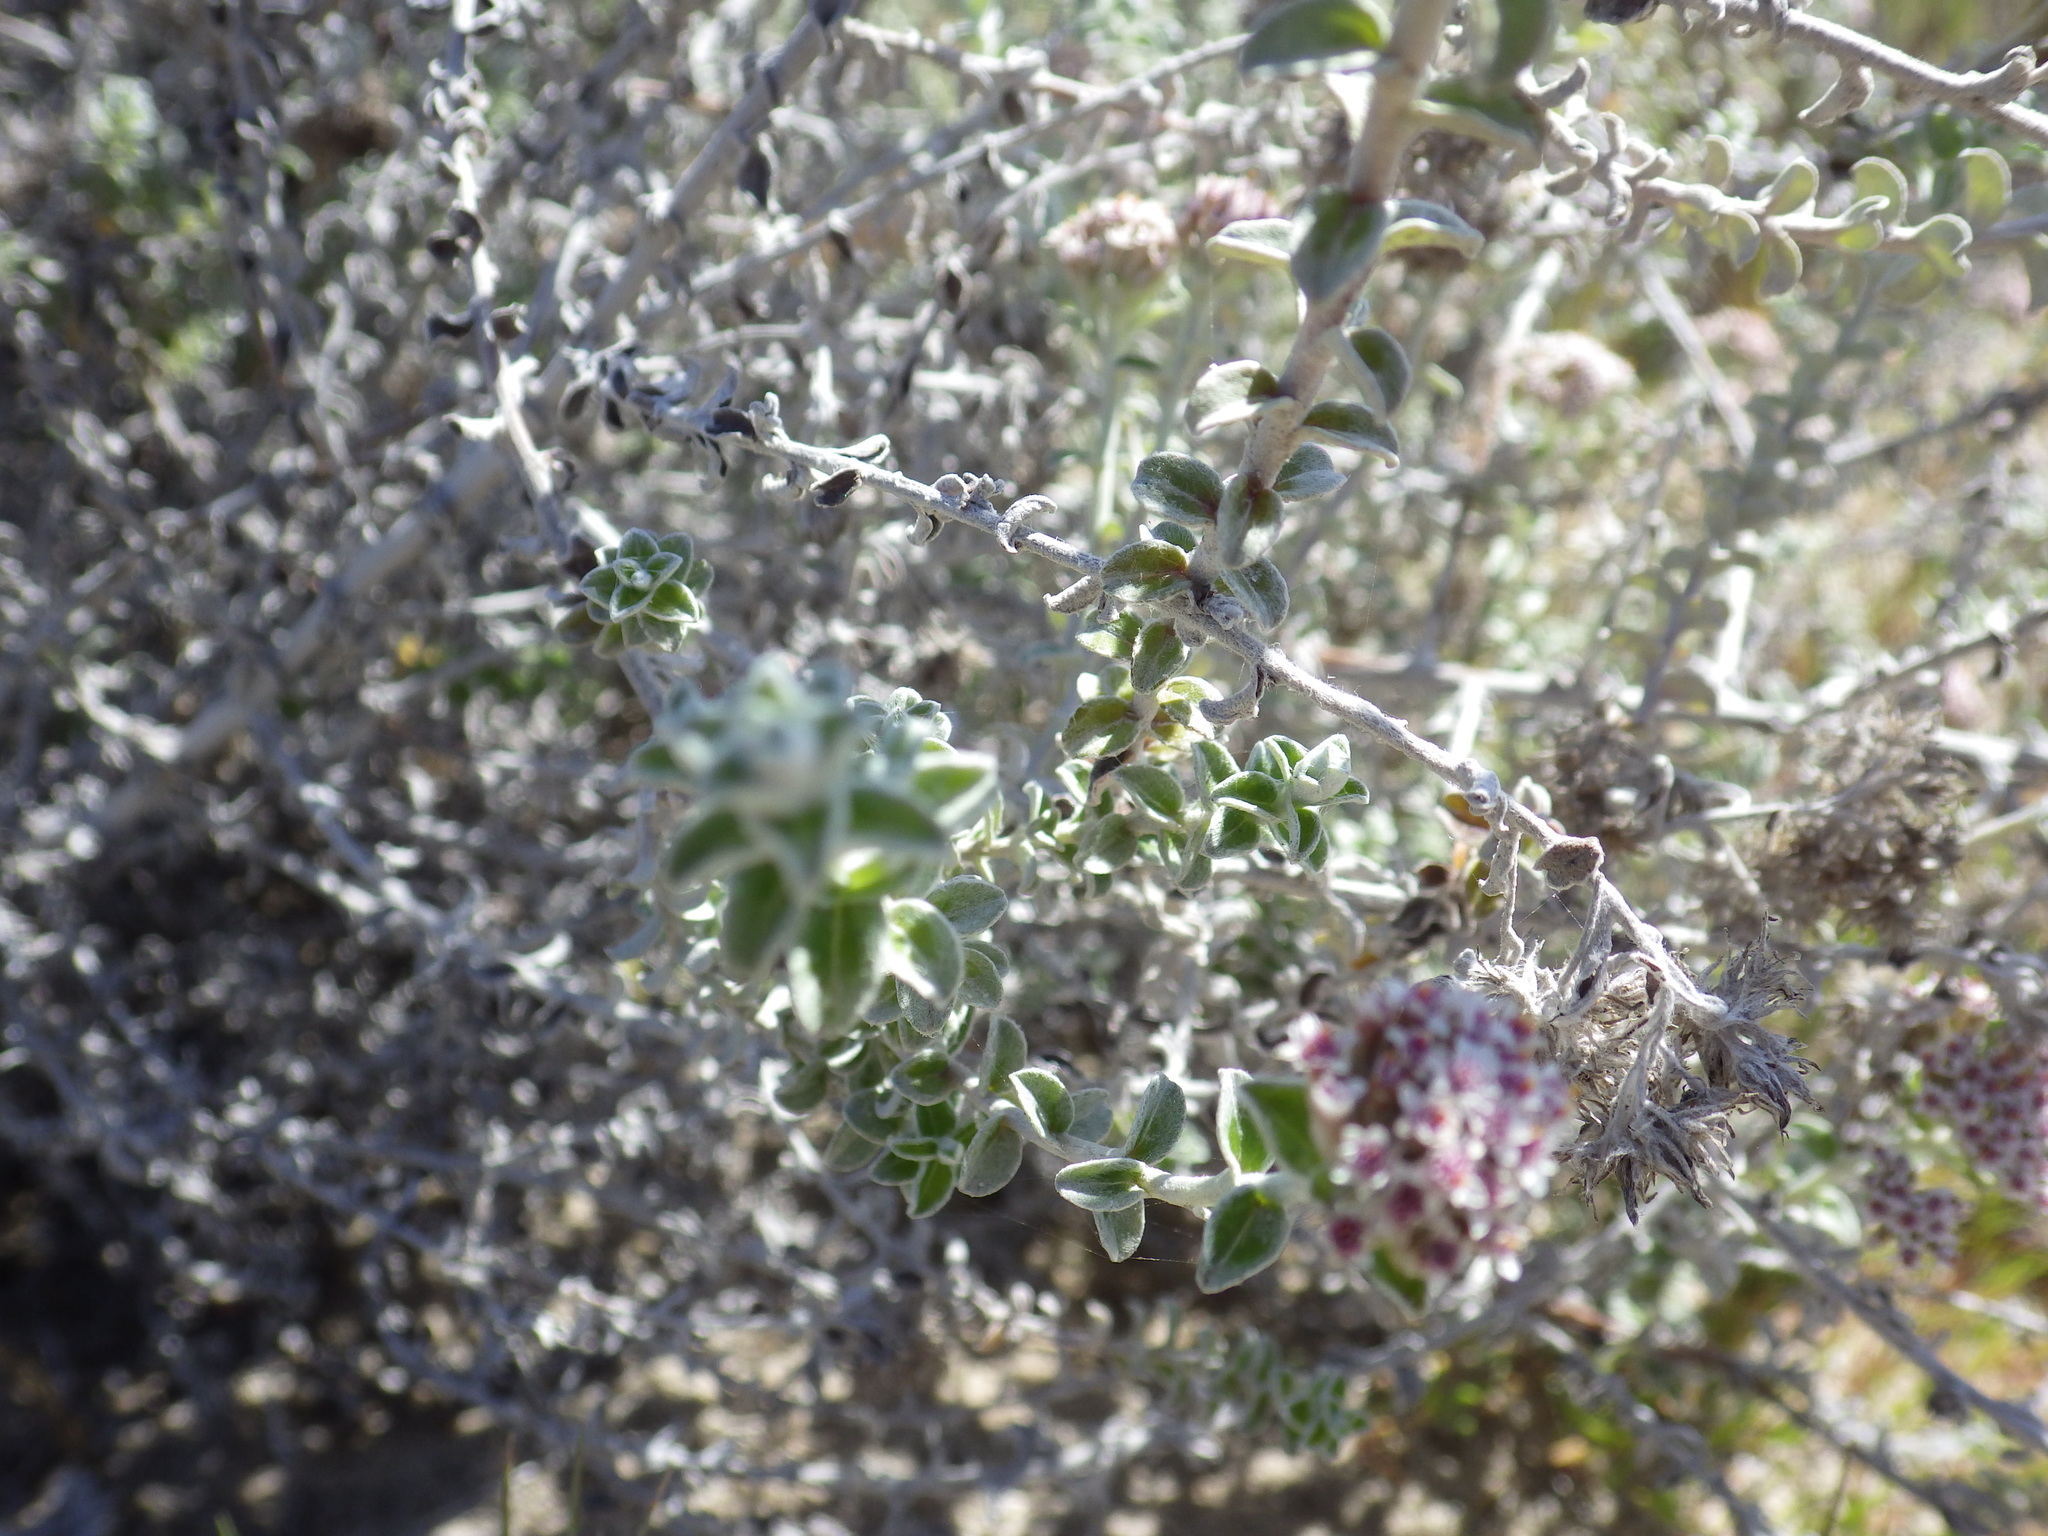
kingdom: Plantae
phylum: Tracheophyta
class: Magnoliopsida
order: Asterales
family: Asteraceae
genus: Plecostachys
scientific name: Plecostachys serpyllifolia
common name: Petite licorice
